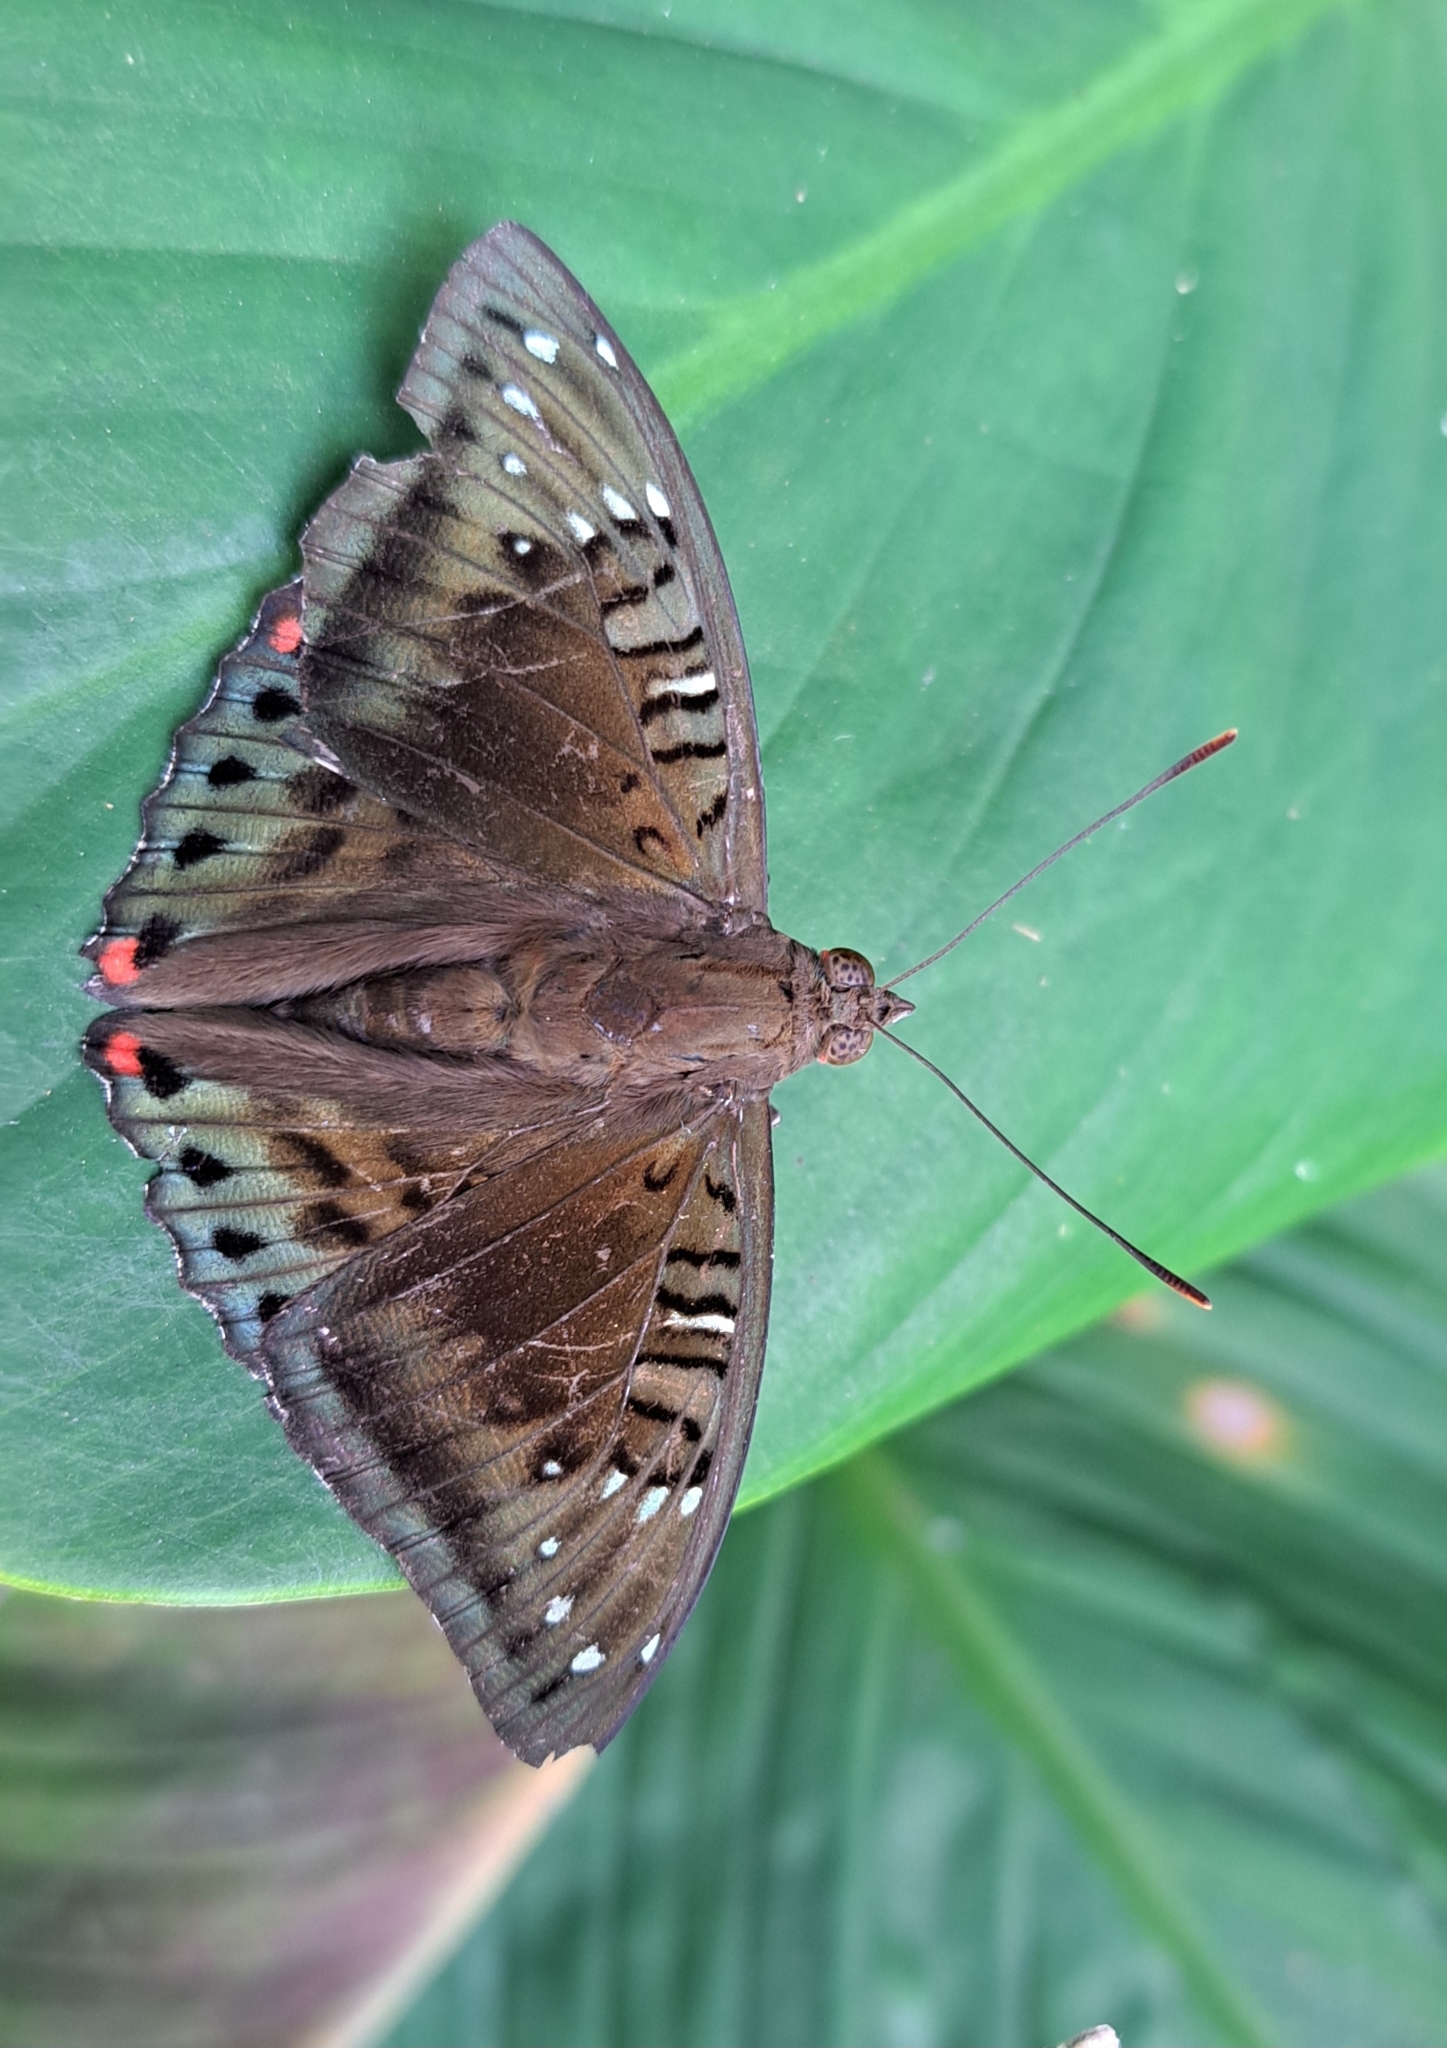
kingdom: Animalia
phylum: Arthropoda
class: Insecta
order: Lepidoptera
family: Nymphalidae
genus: Euthalia
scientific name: Euthalia adonia
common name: Green baron
